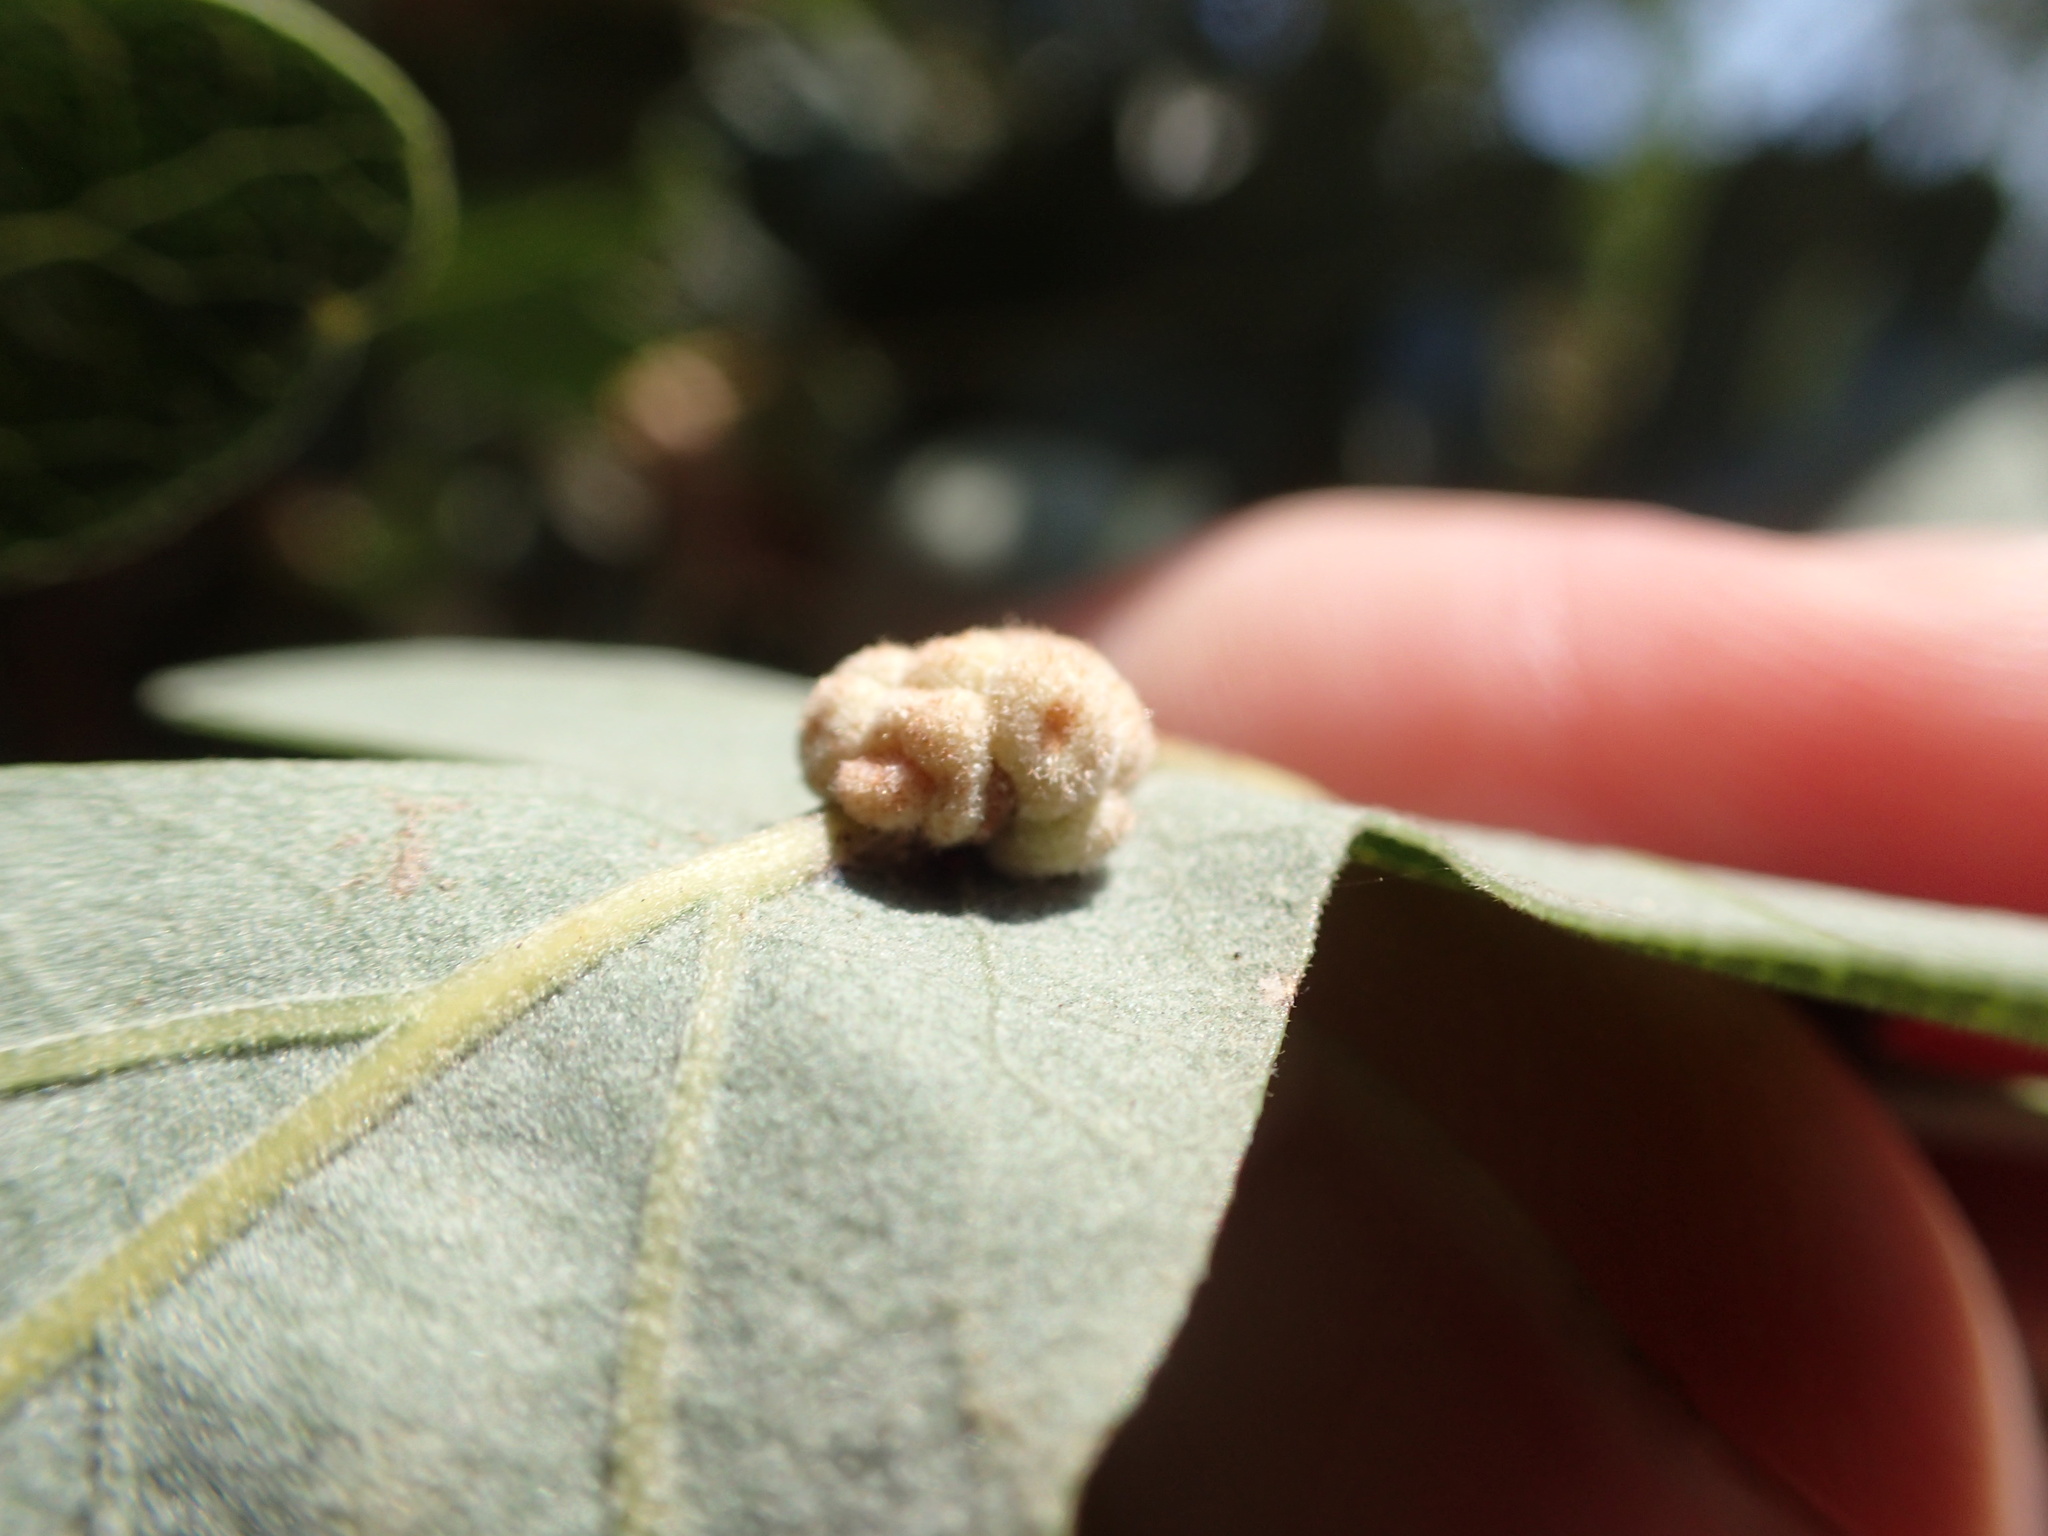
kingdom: Animalia
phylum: Arthropoda
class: Insecta
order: Hymenoptera
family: Cynipidae
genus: Andricus
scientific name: Andricus
